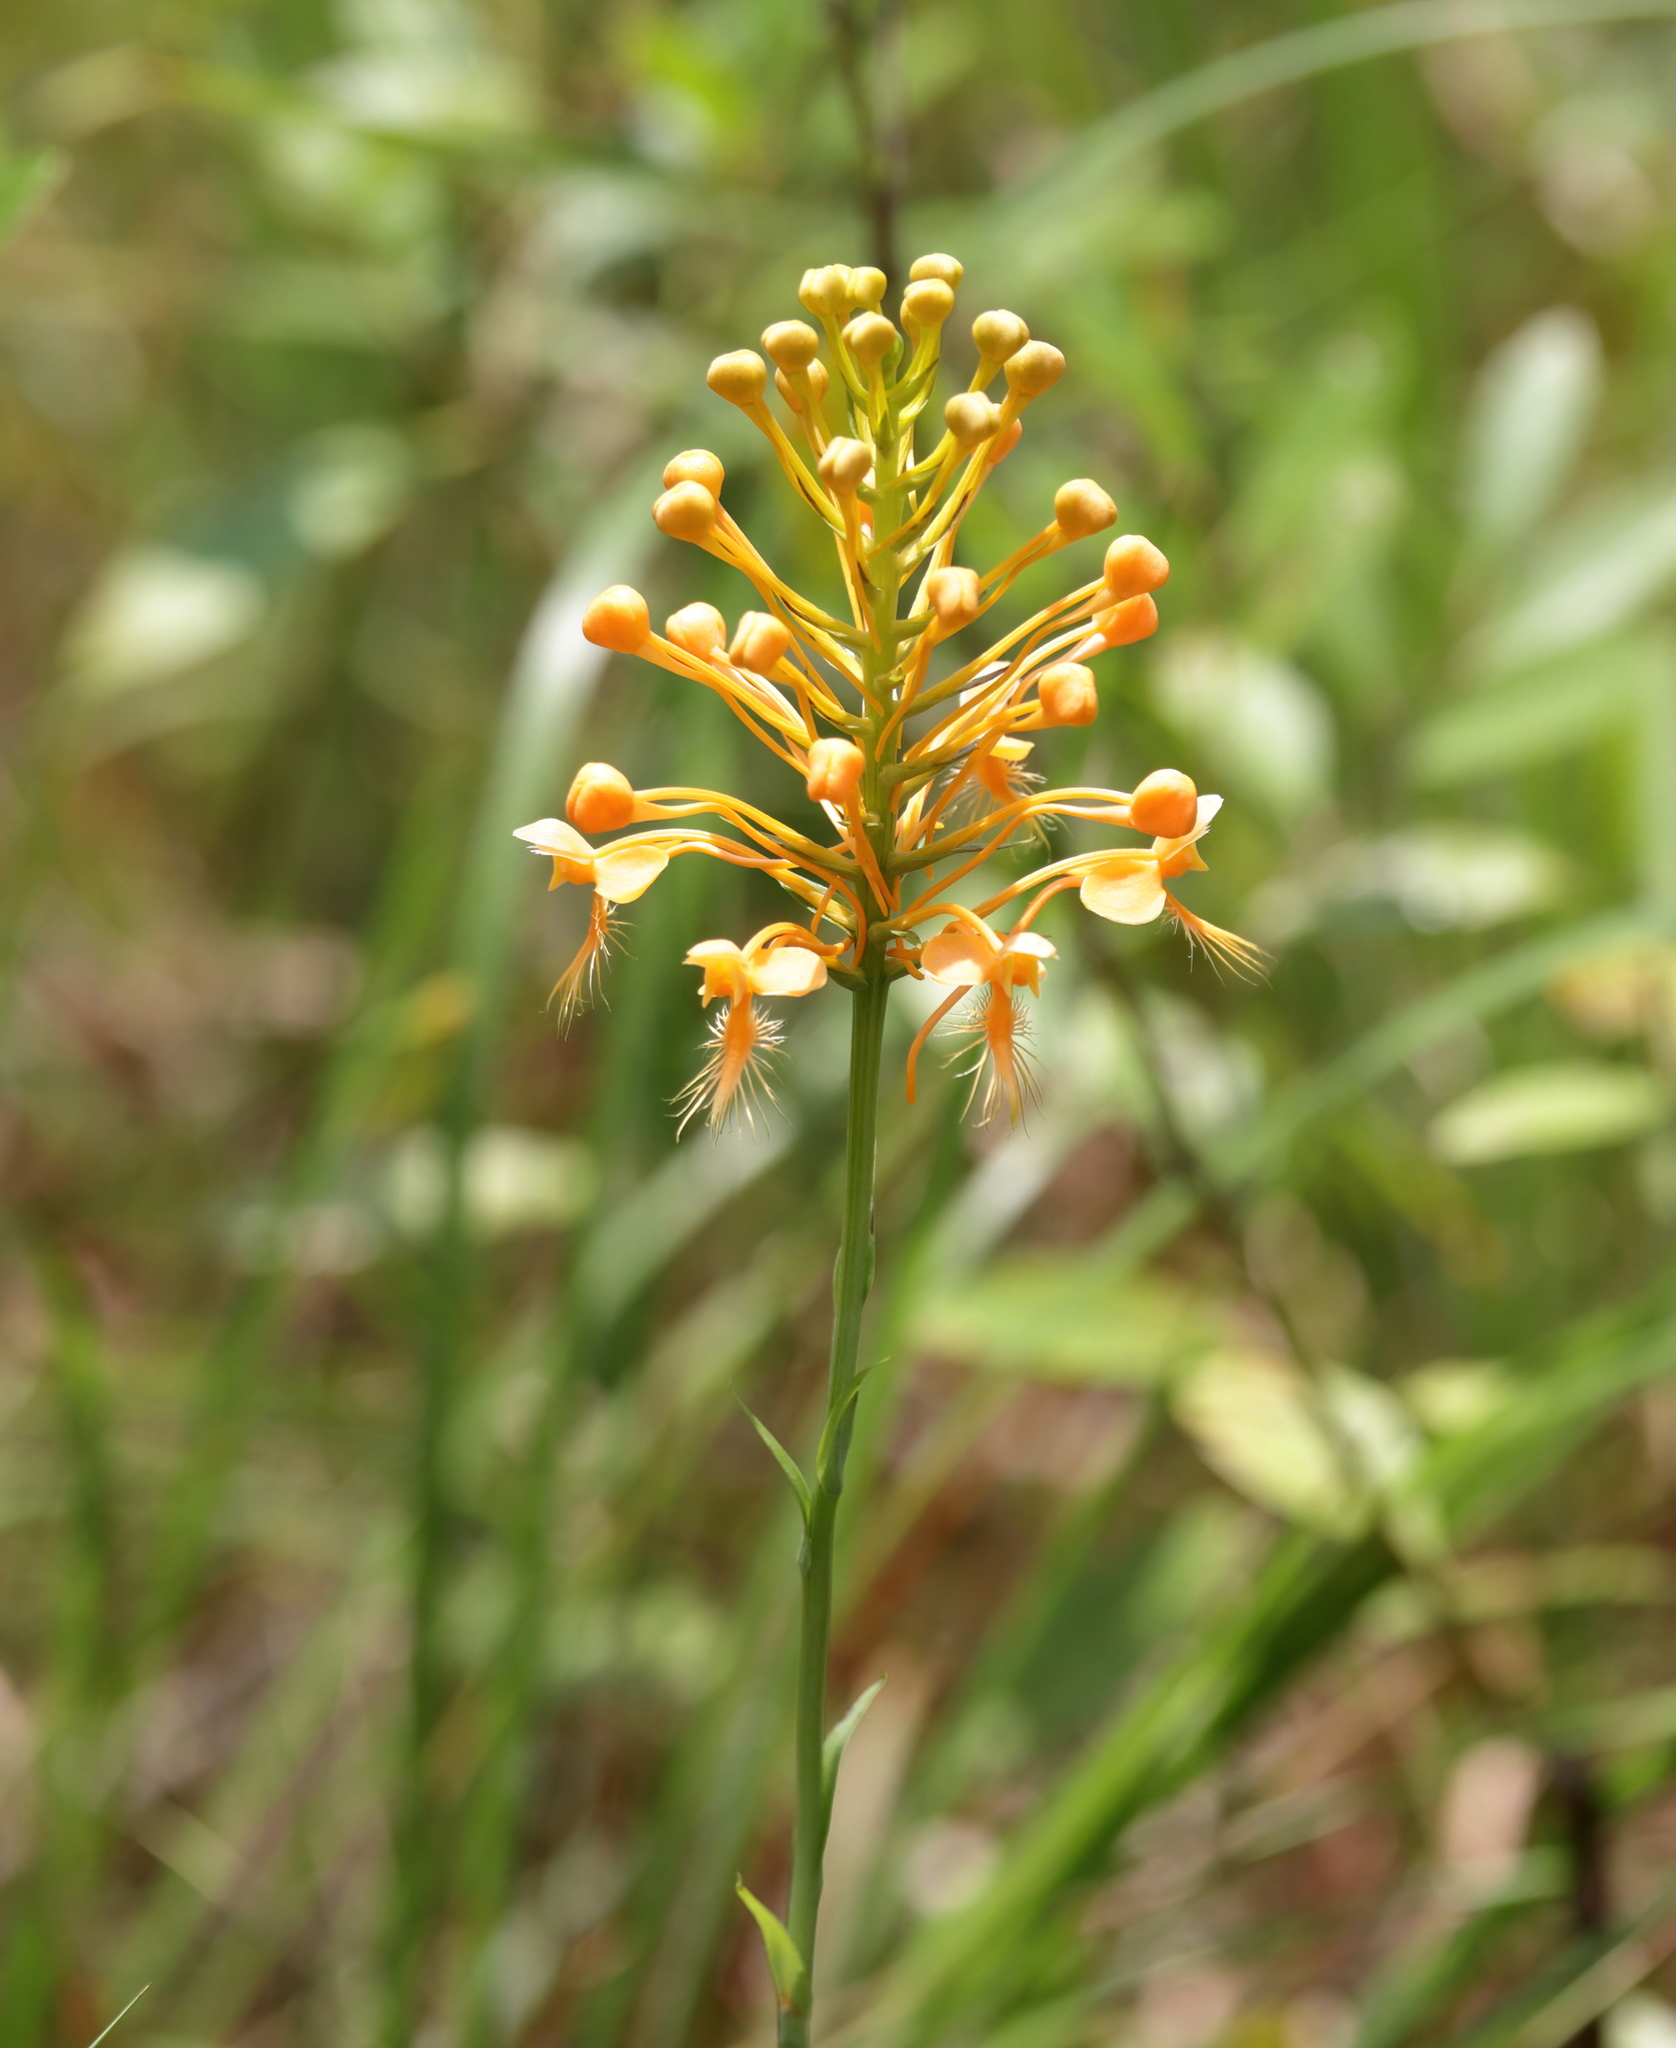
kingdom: Plantae
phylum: Tracheophyta
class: Liliopsida
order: Asparagales
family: Orchidaceae
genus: Platanthera
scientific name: Platanthera ciliaris
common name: Yellow fringed orchid
